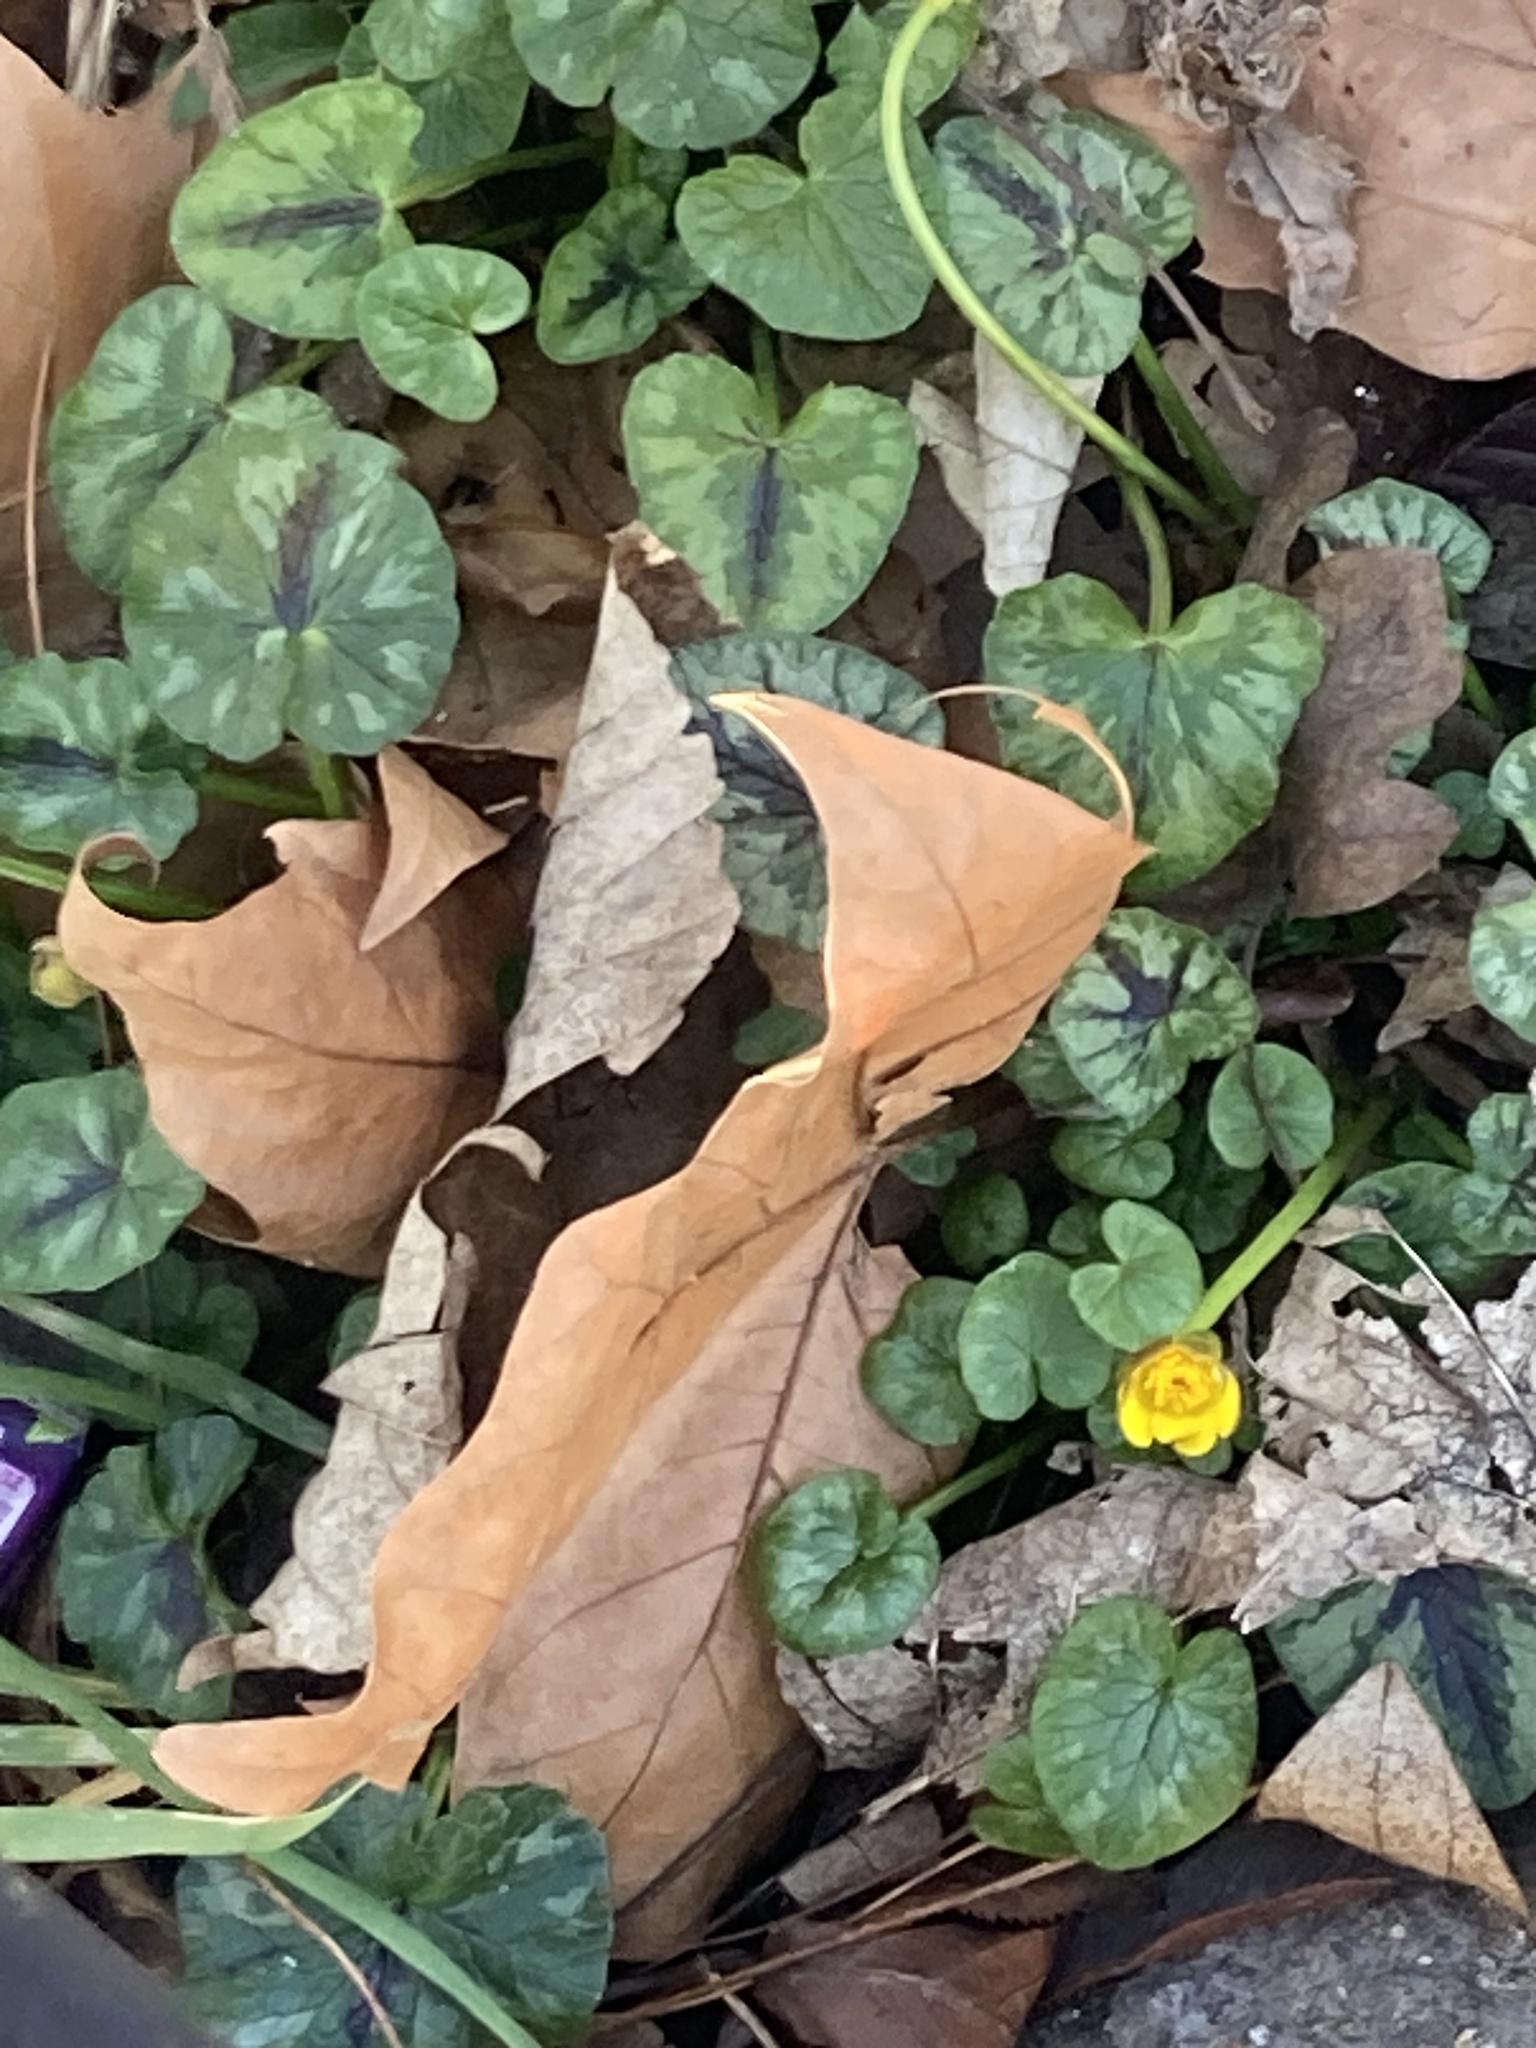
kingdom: Plantae
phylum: Tracheophyta
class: Magnoliopsida
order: Ranunculales
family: Ranunculaceae
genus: Ficaria
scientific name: Ficaria verna
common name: Lesser celandine
